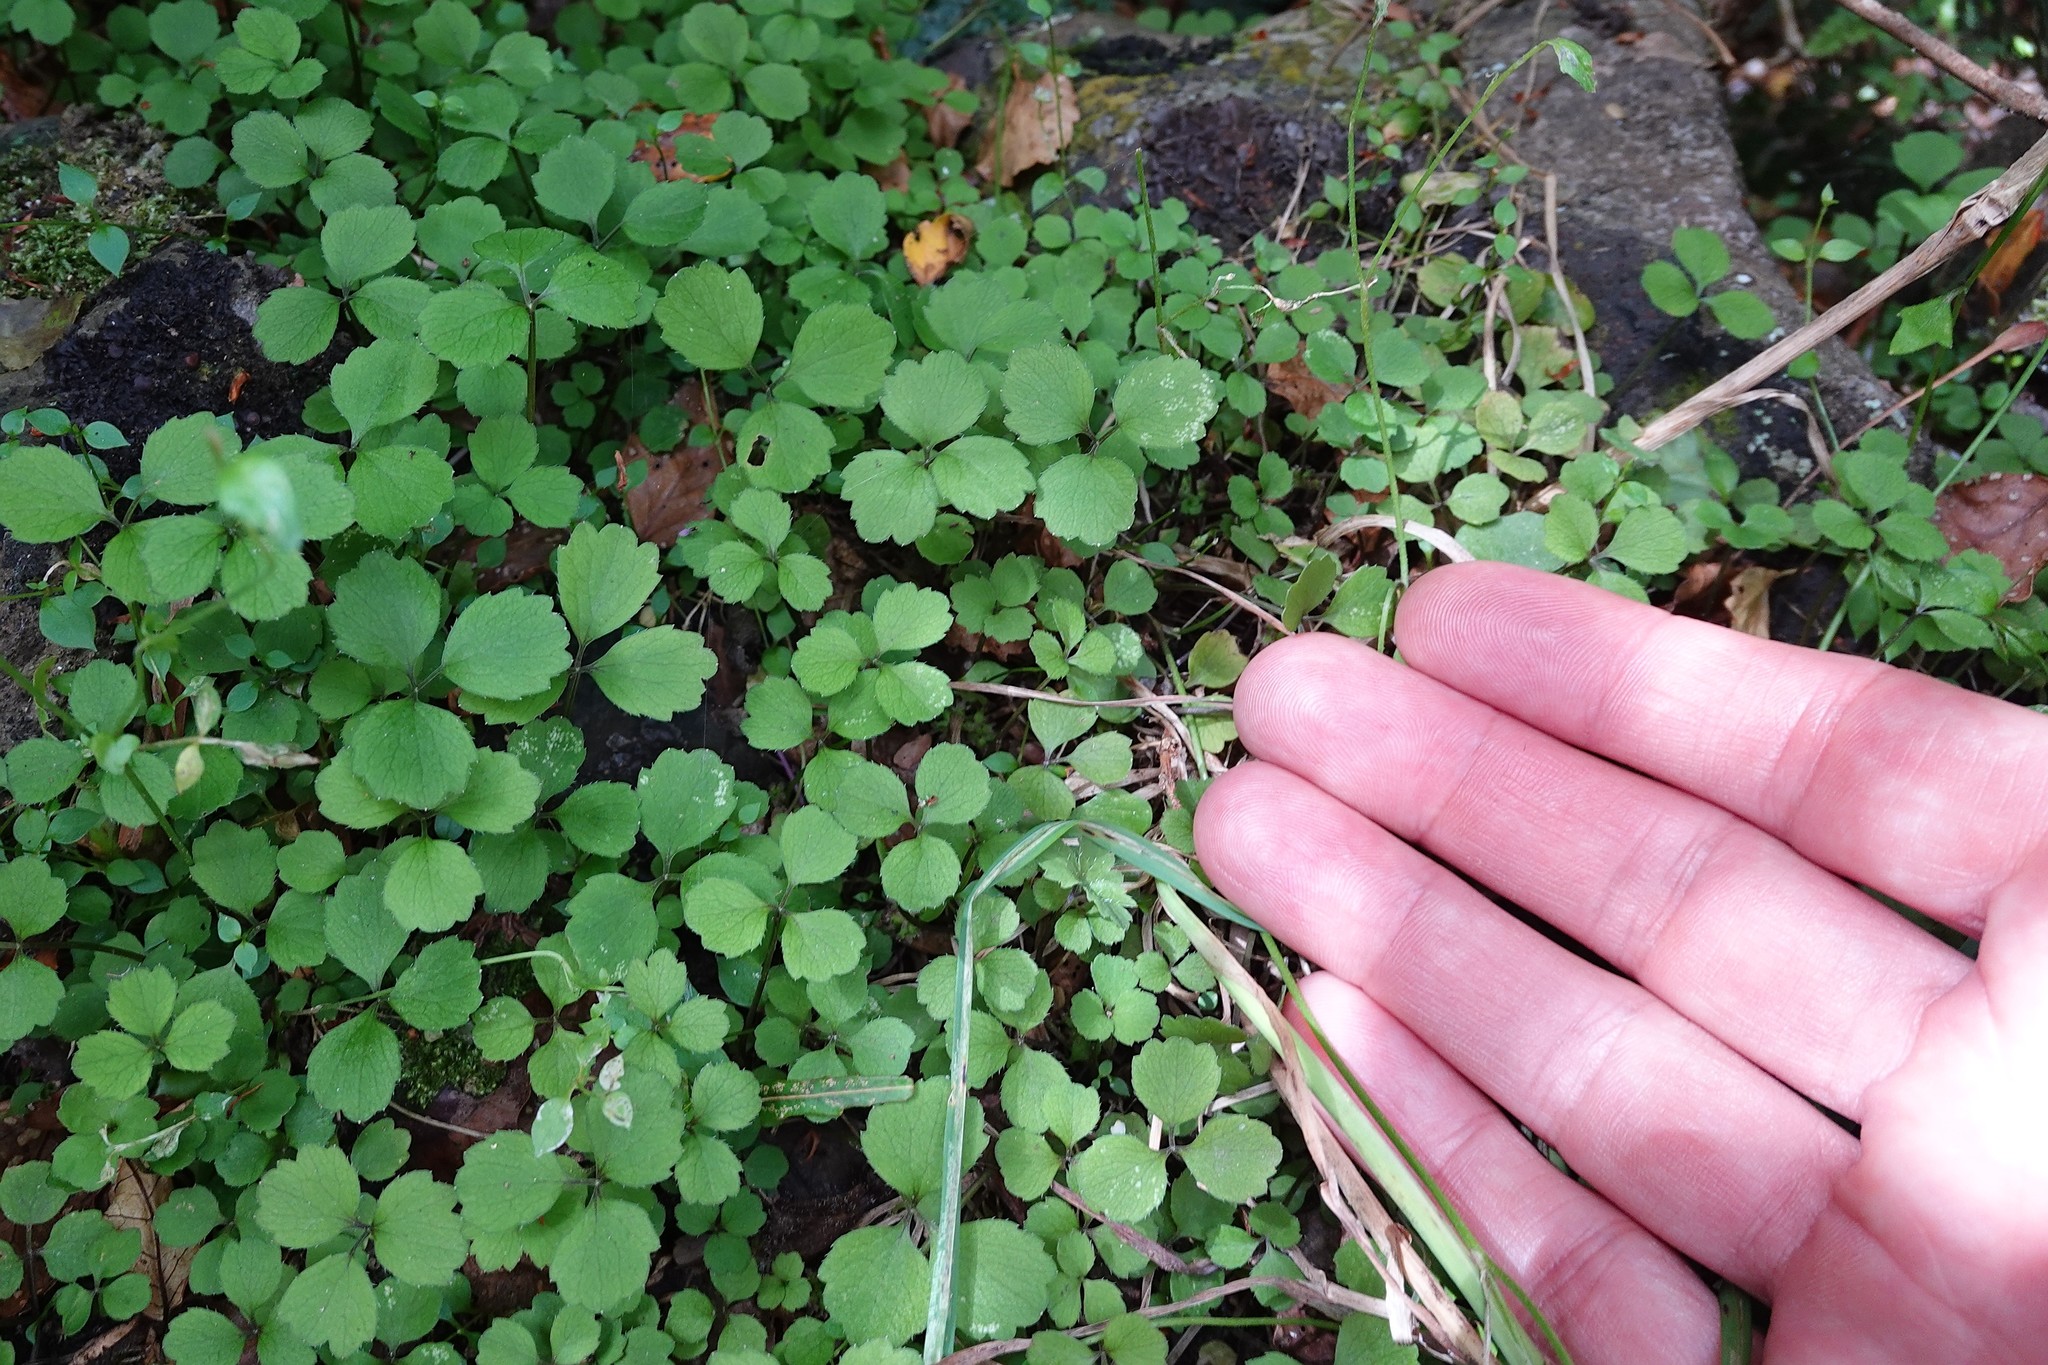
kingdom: Plantae
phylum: Tracheophyta
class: Magnoliopsida
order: Apiales
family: Apiaceae
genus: Azorella
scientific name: Azorella hookeri
